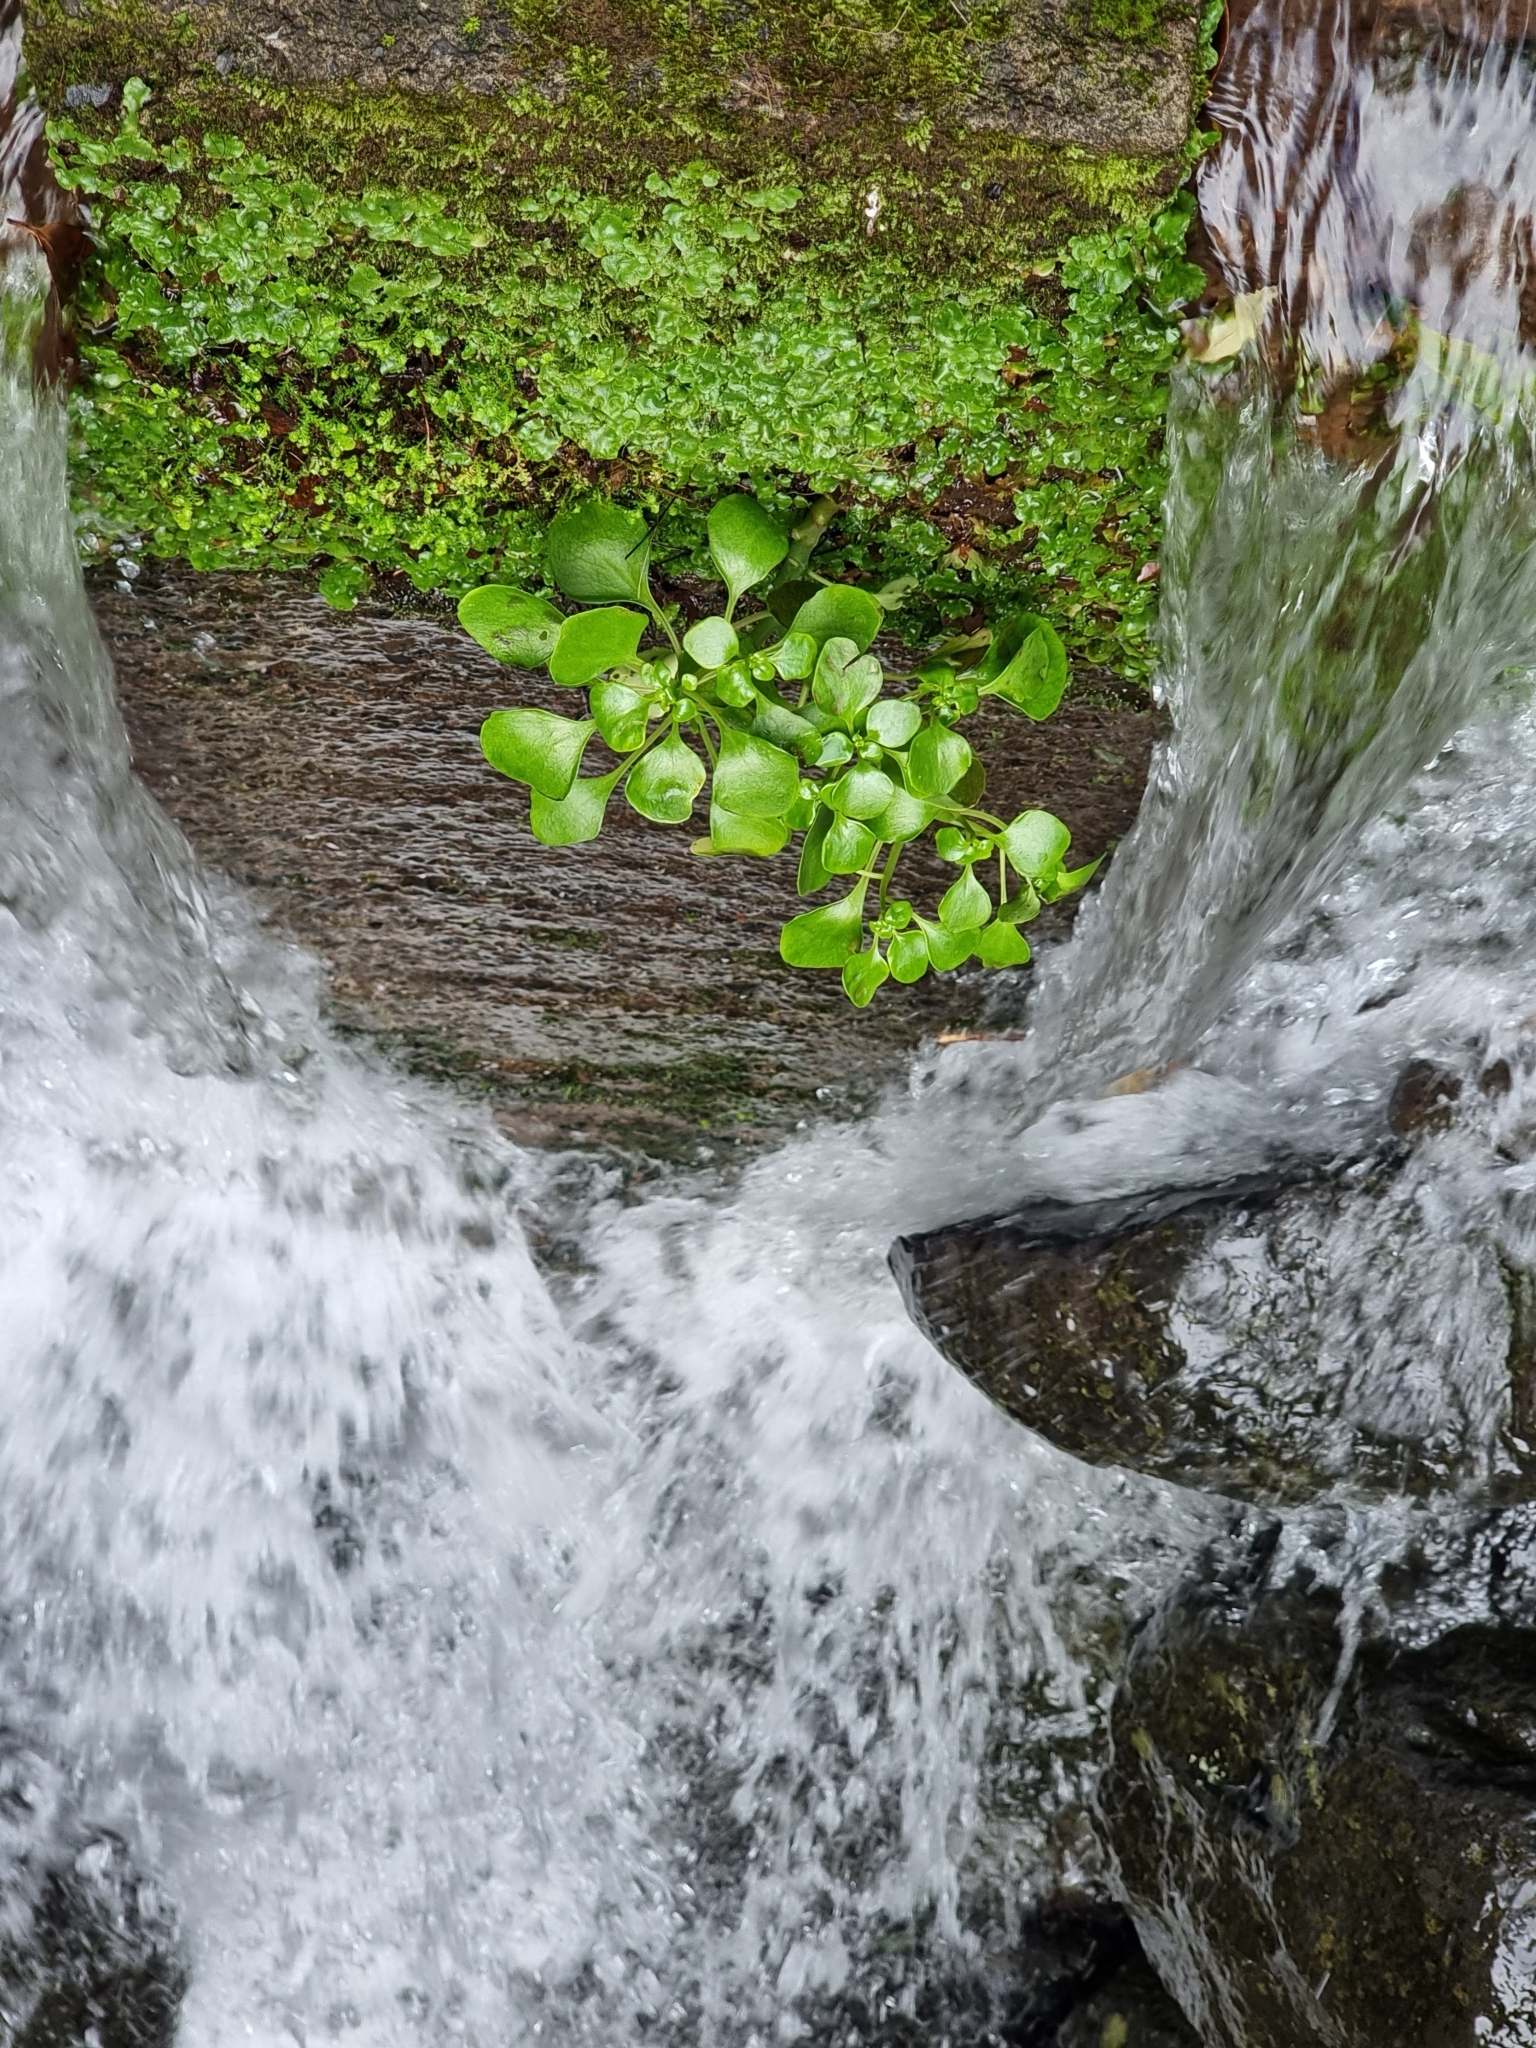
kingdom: Plantae
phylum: Tracheophyta
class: Magnoliopsida
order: Saxifragales
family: Crassulaceae
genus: Aichryson
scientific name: Aichryson divaricatum
